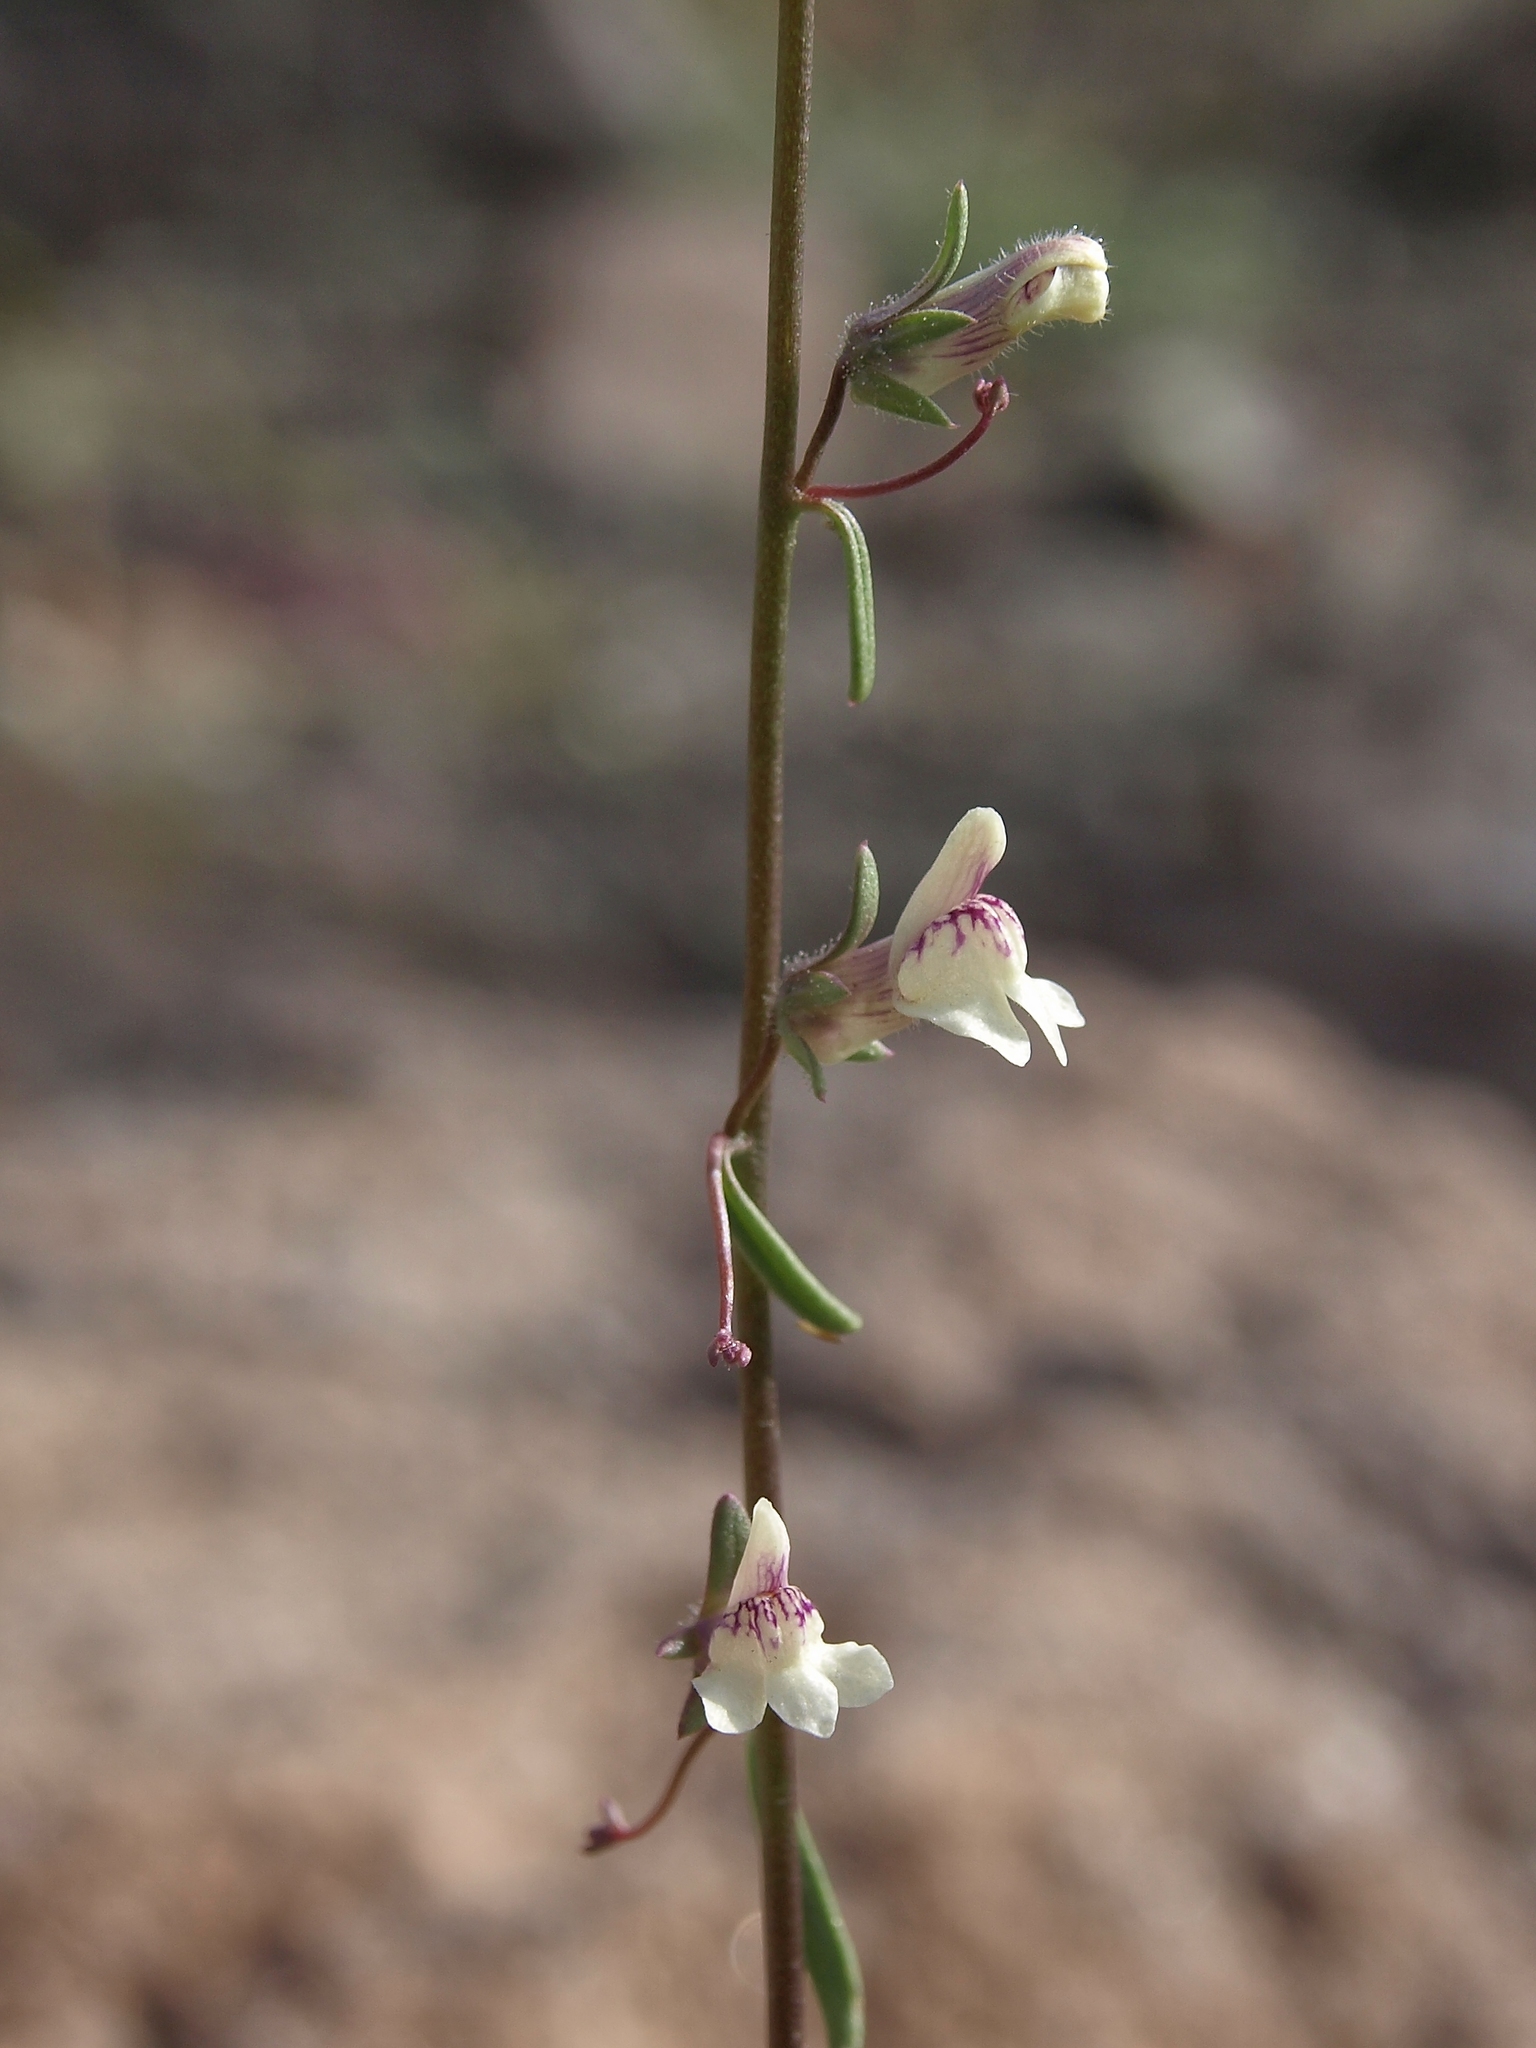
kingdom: Plantae
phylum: Tracheophyta
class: Magnoliopsida
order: Lamiales
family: Plantaginaceae
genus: Sairocarpus
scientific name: Sairocarpus kingii
